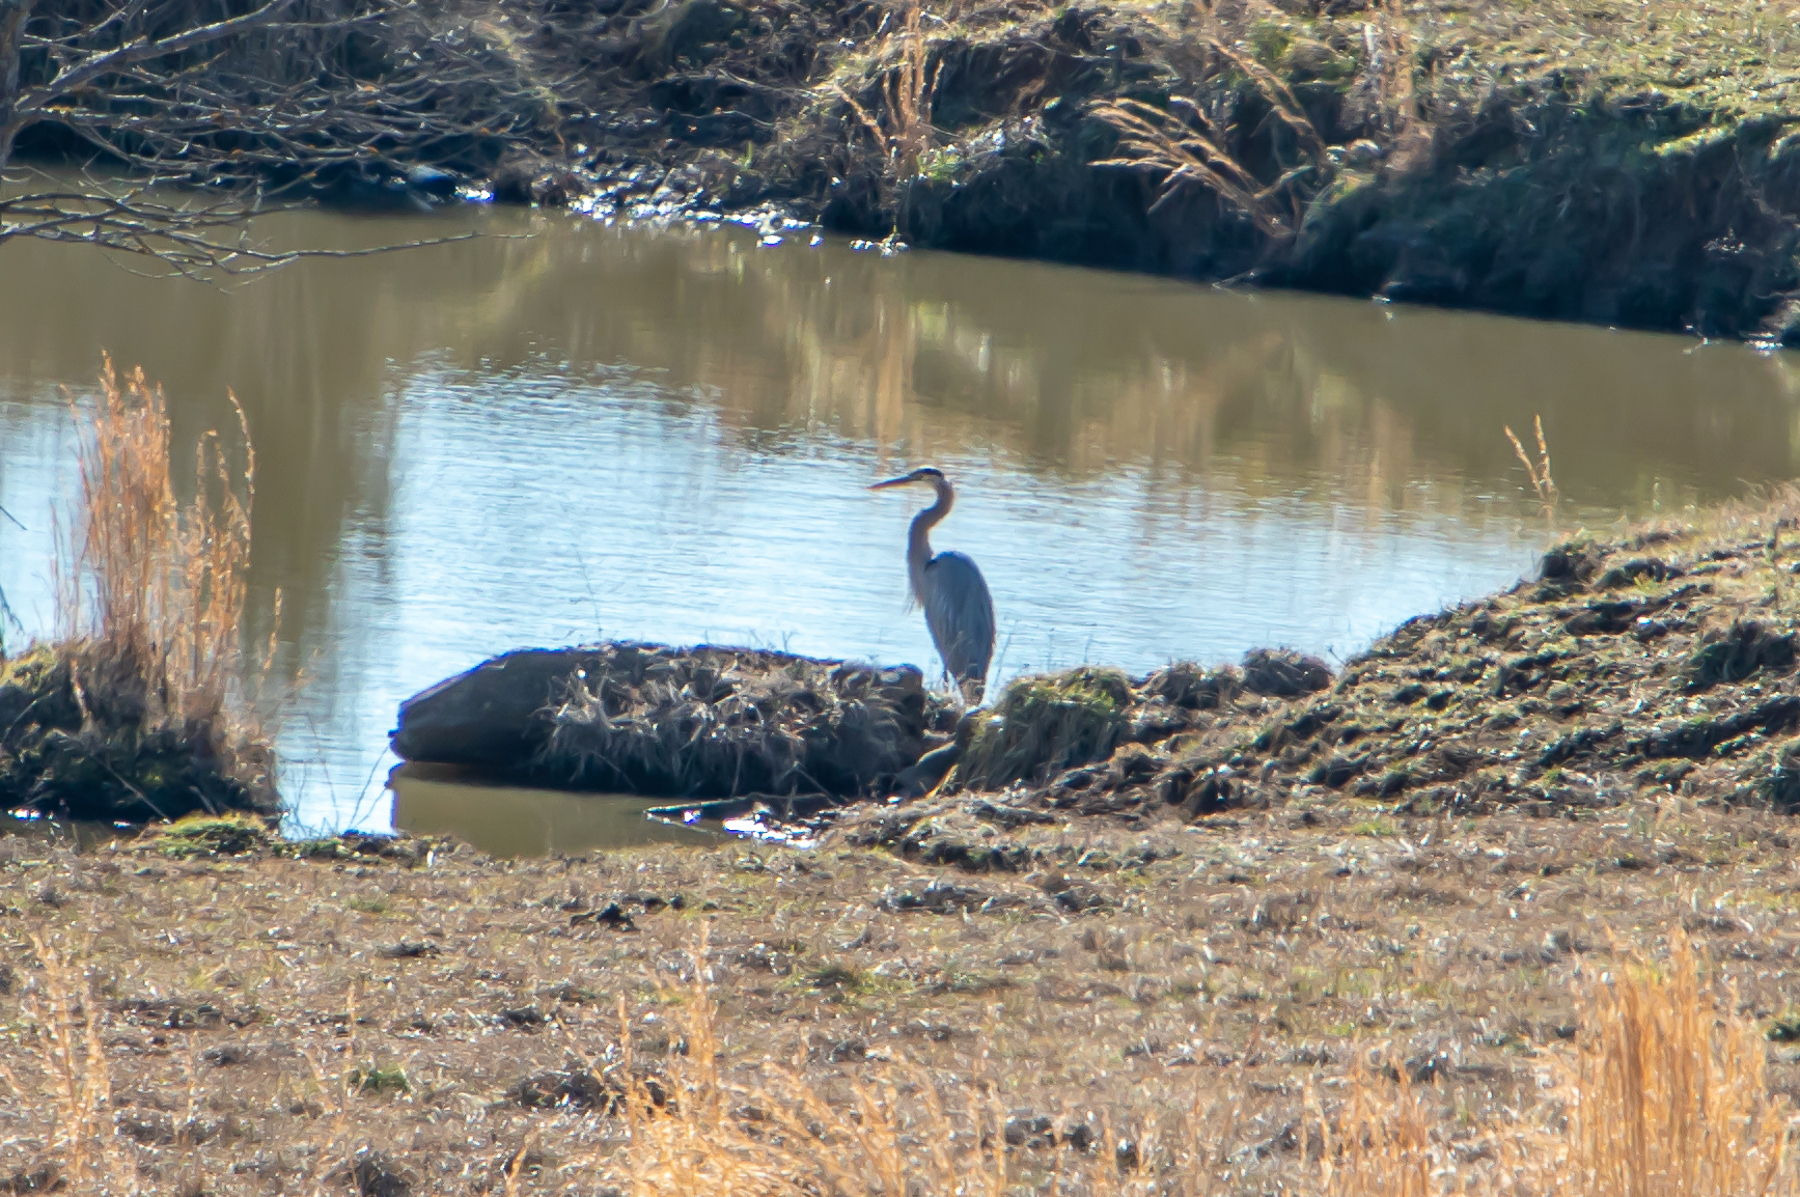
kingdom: Animalia
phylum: Chordata
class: Aves
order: Pelecaniformes
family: Ardeidae
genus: Ardea
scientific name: Ardea herodias
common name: Great blue heron
